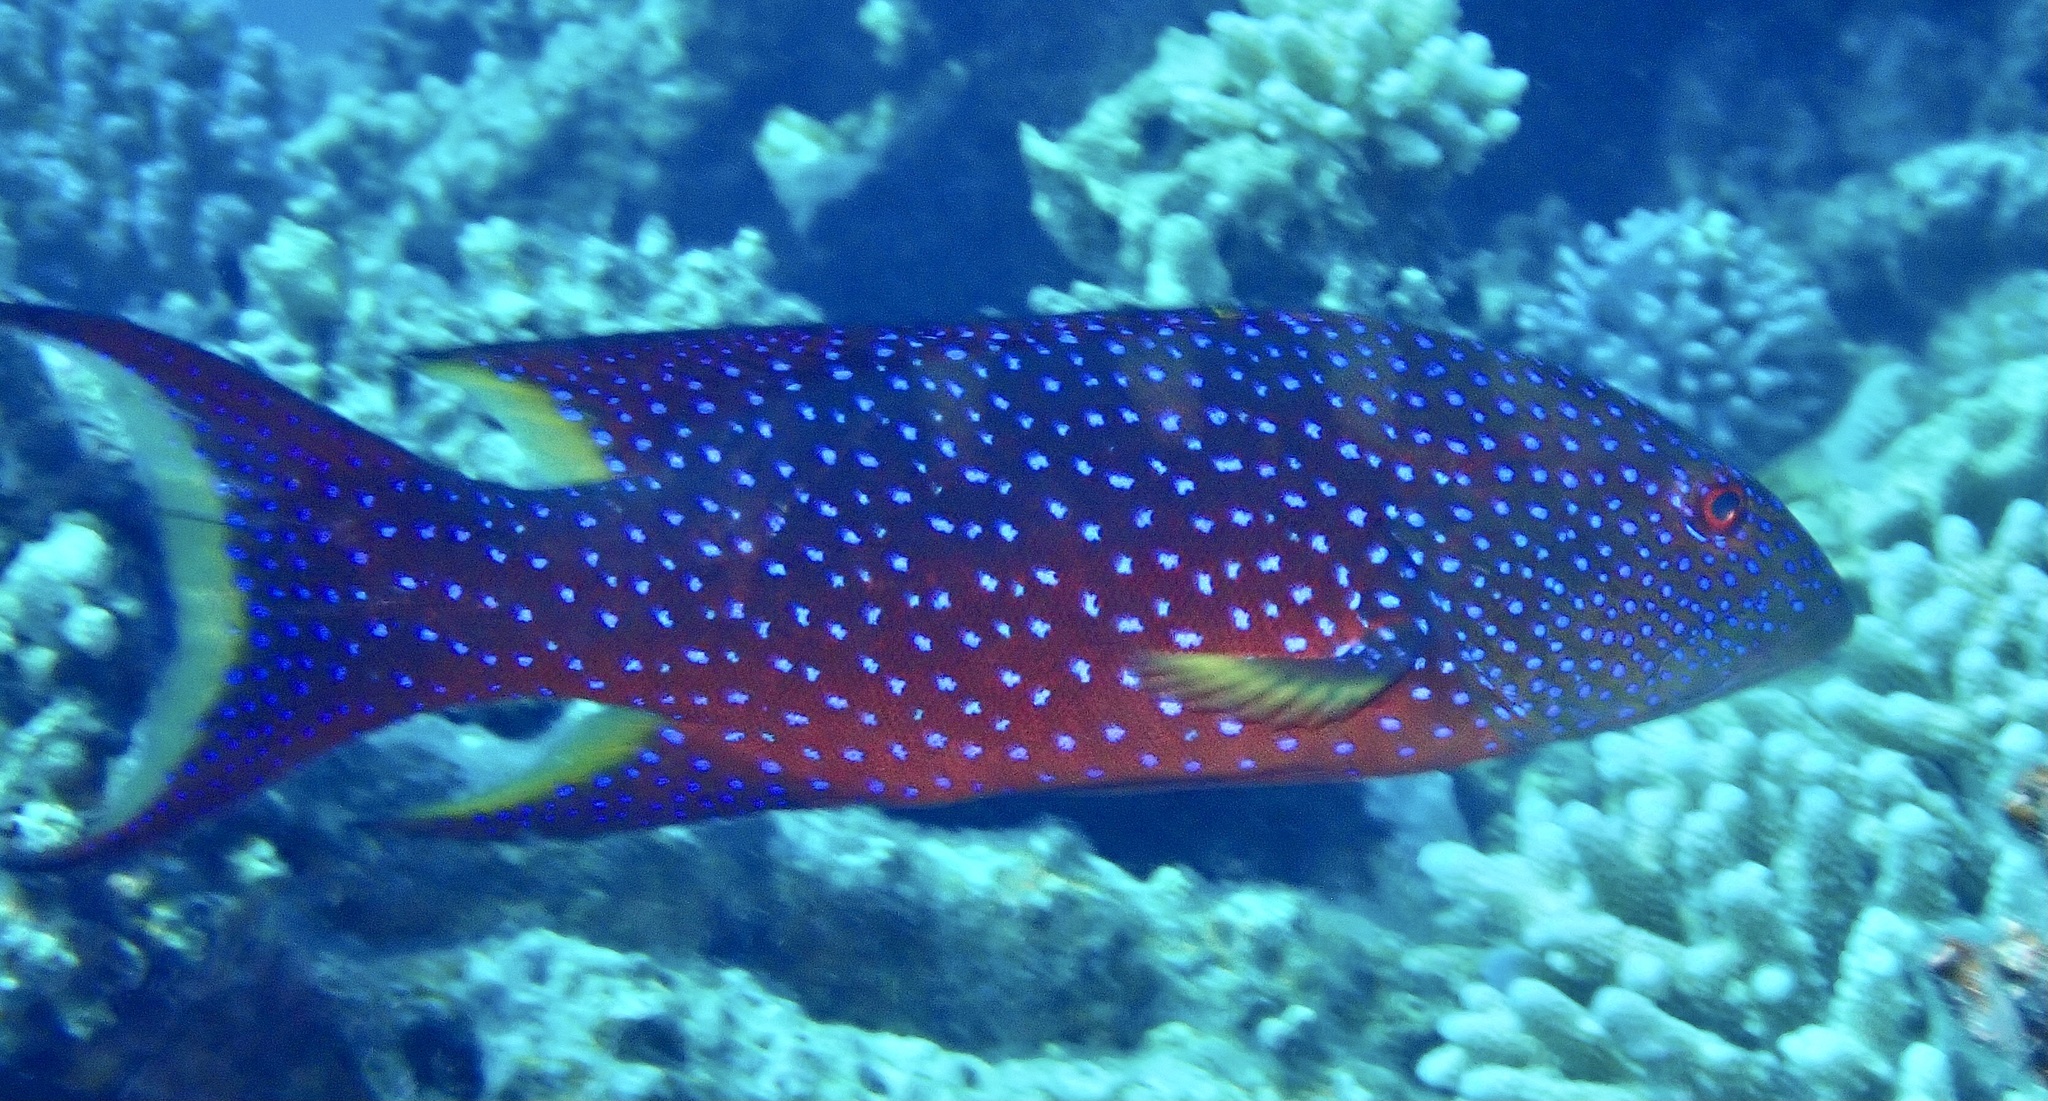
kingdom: Animalia
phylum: Chordata
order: Perciformes
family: Serranidae
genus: Variola
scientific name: Variola louti
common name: Yellow-edged lyretail
